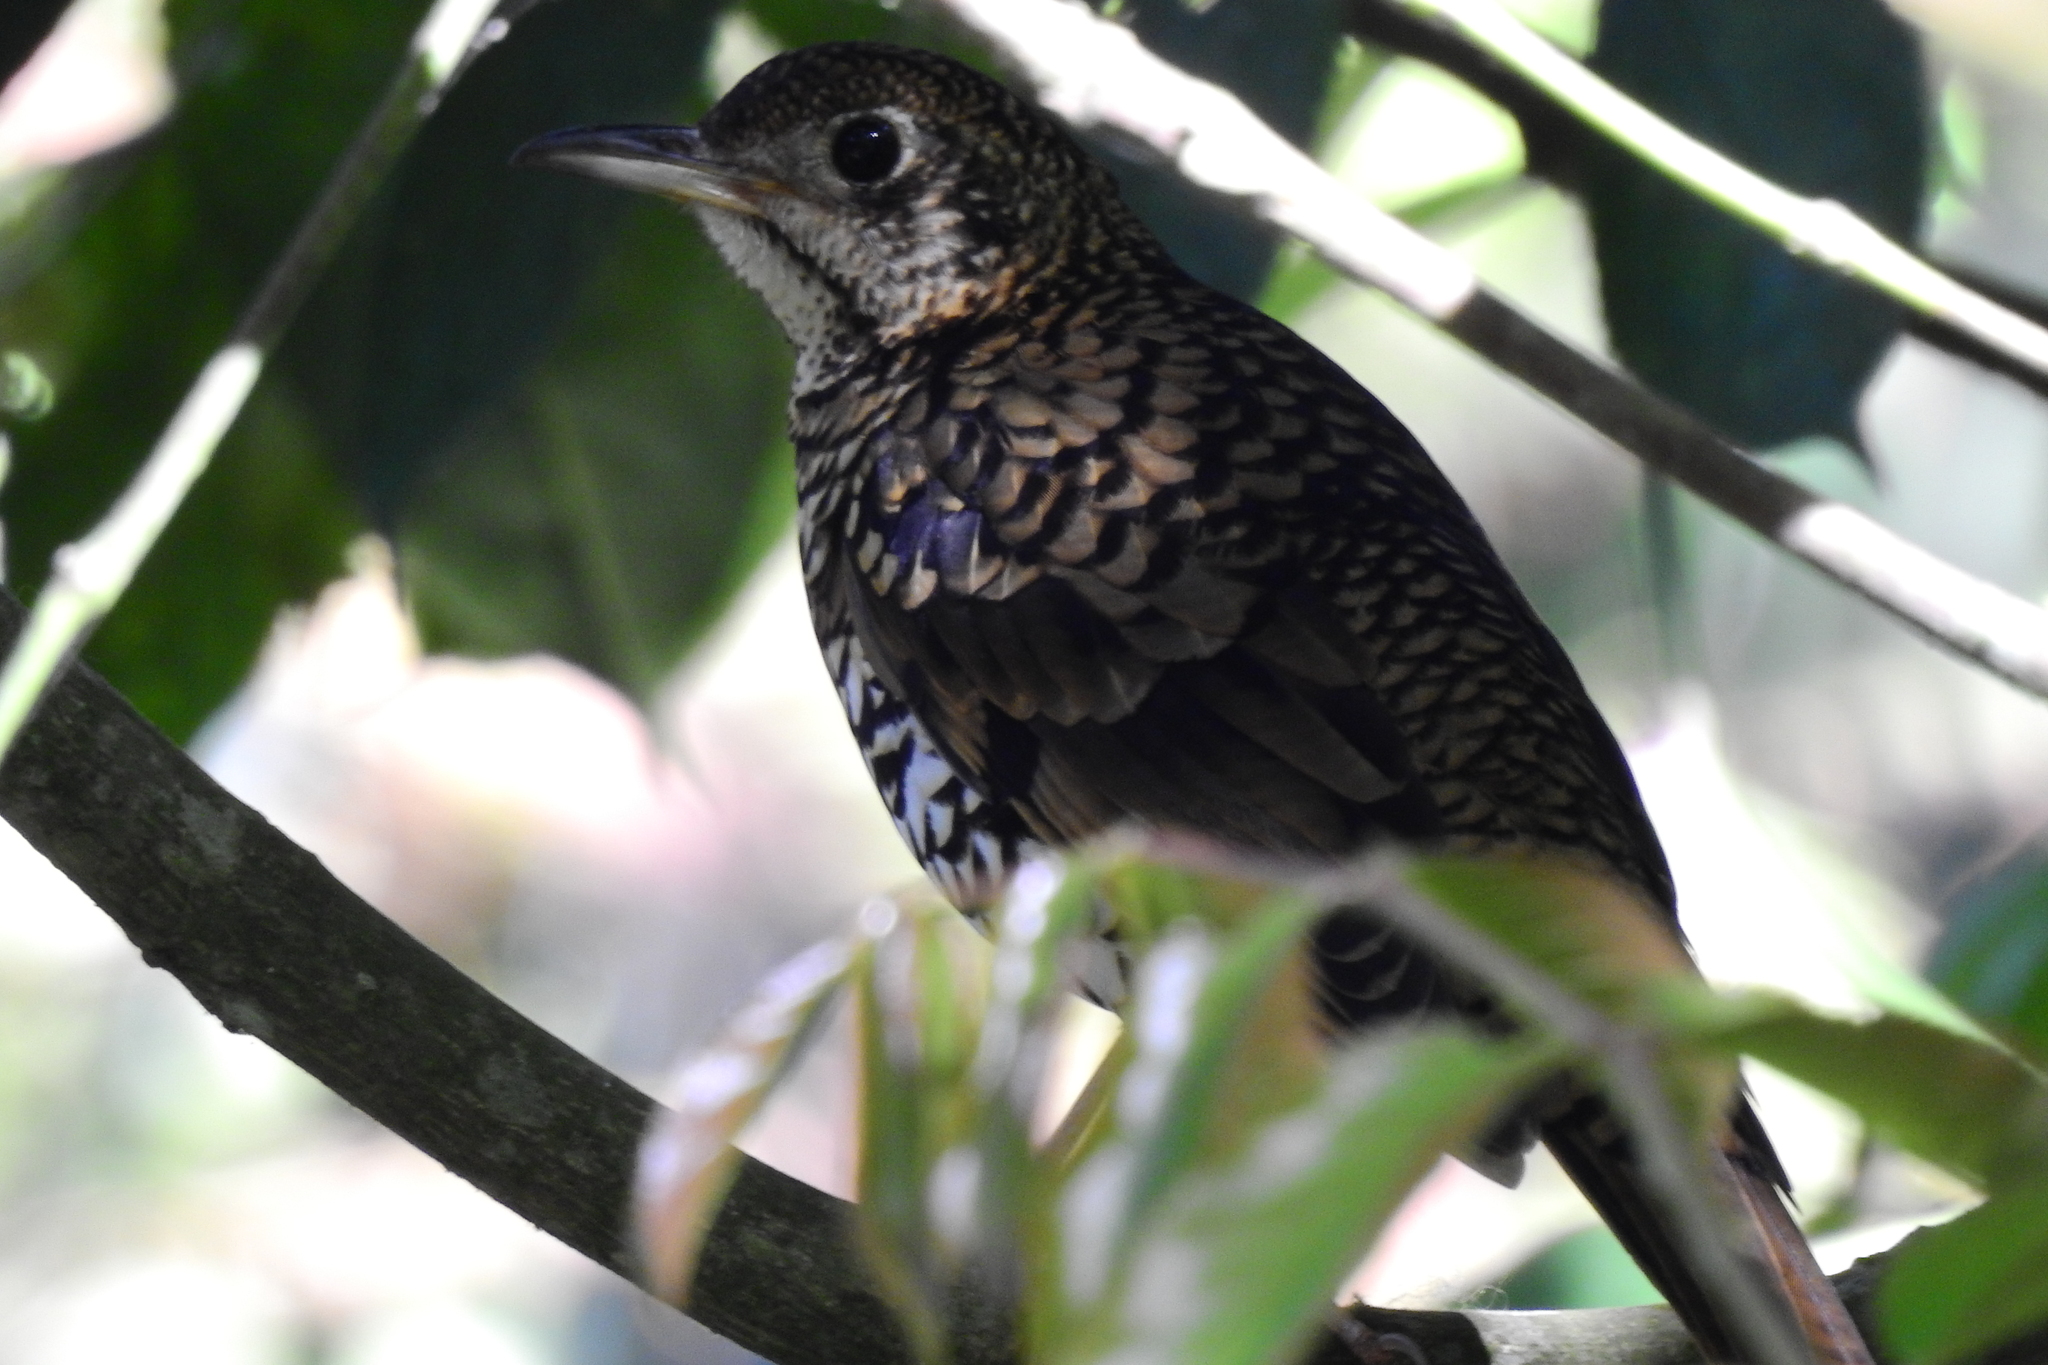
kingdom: Animalia
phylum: Chordata
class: Aves
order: Passeriformes
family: Turdidae
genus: Zoothera
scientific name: Zoothera dauma
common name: Scaly thrush
